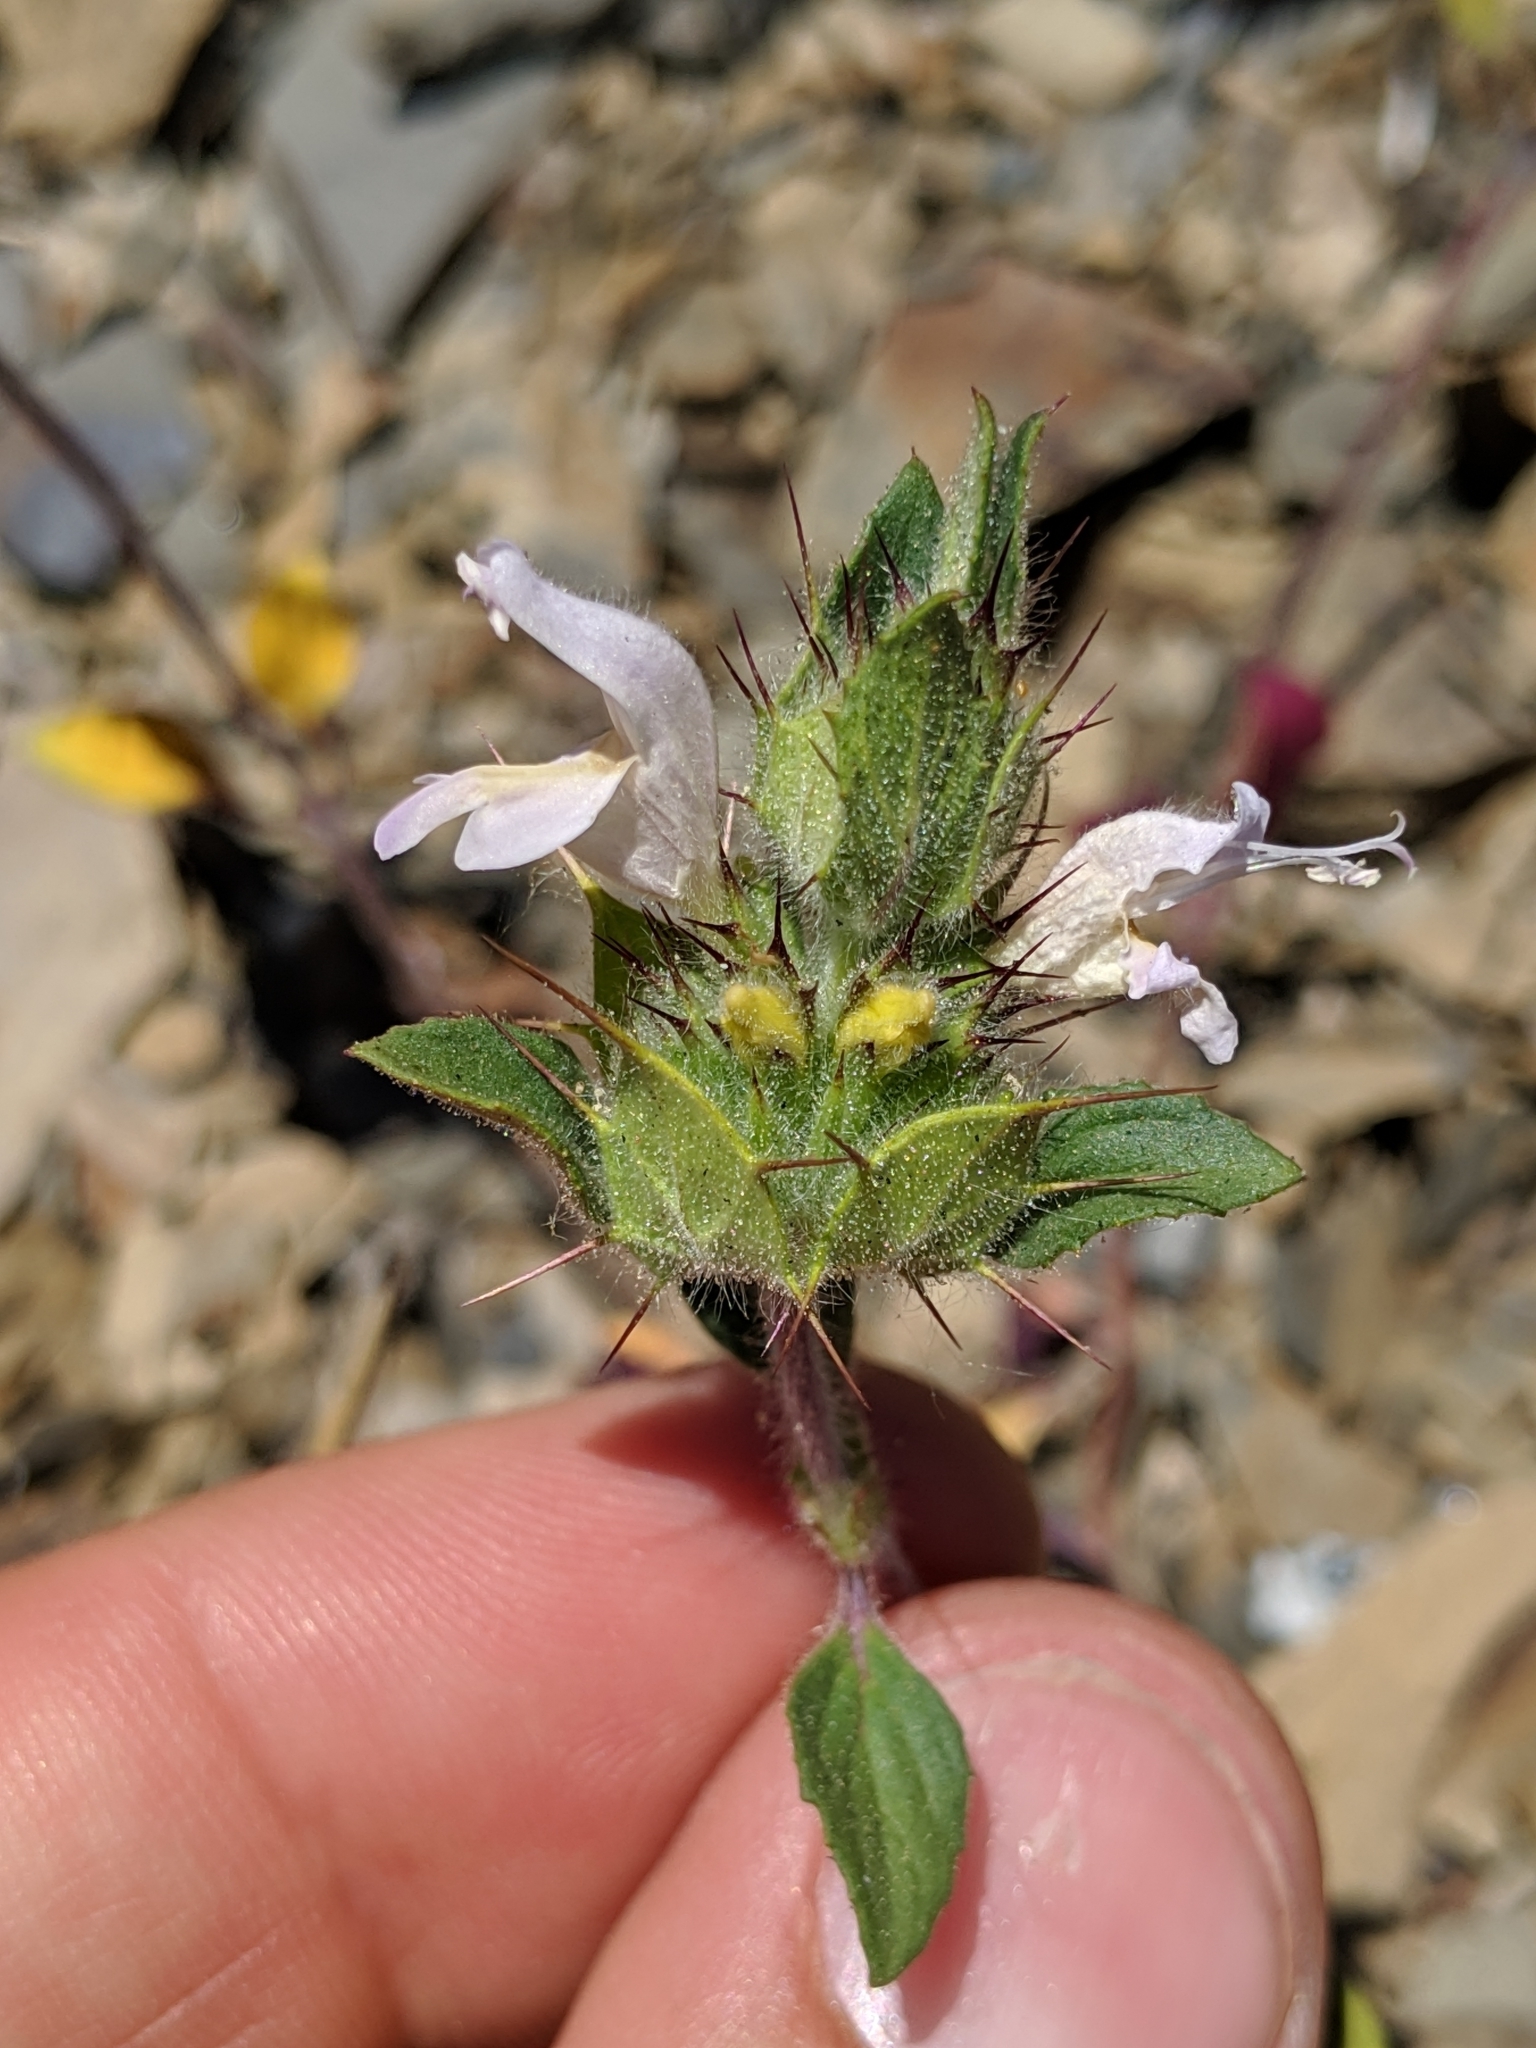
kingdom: Plantae
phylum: Tracheophyta
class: Magnoliopsida
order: Lamiales
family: Lamiaceae
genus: Acanthomintha
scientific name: Acanthomintha lanceolata
